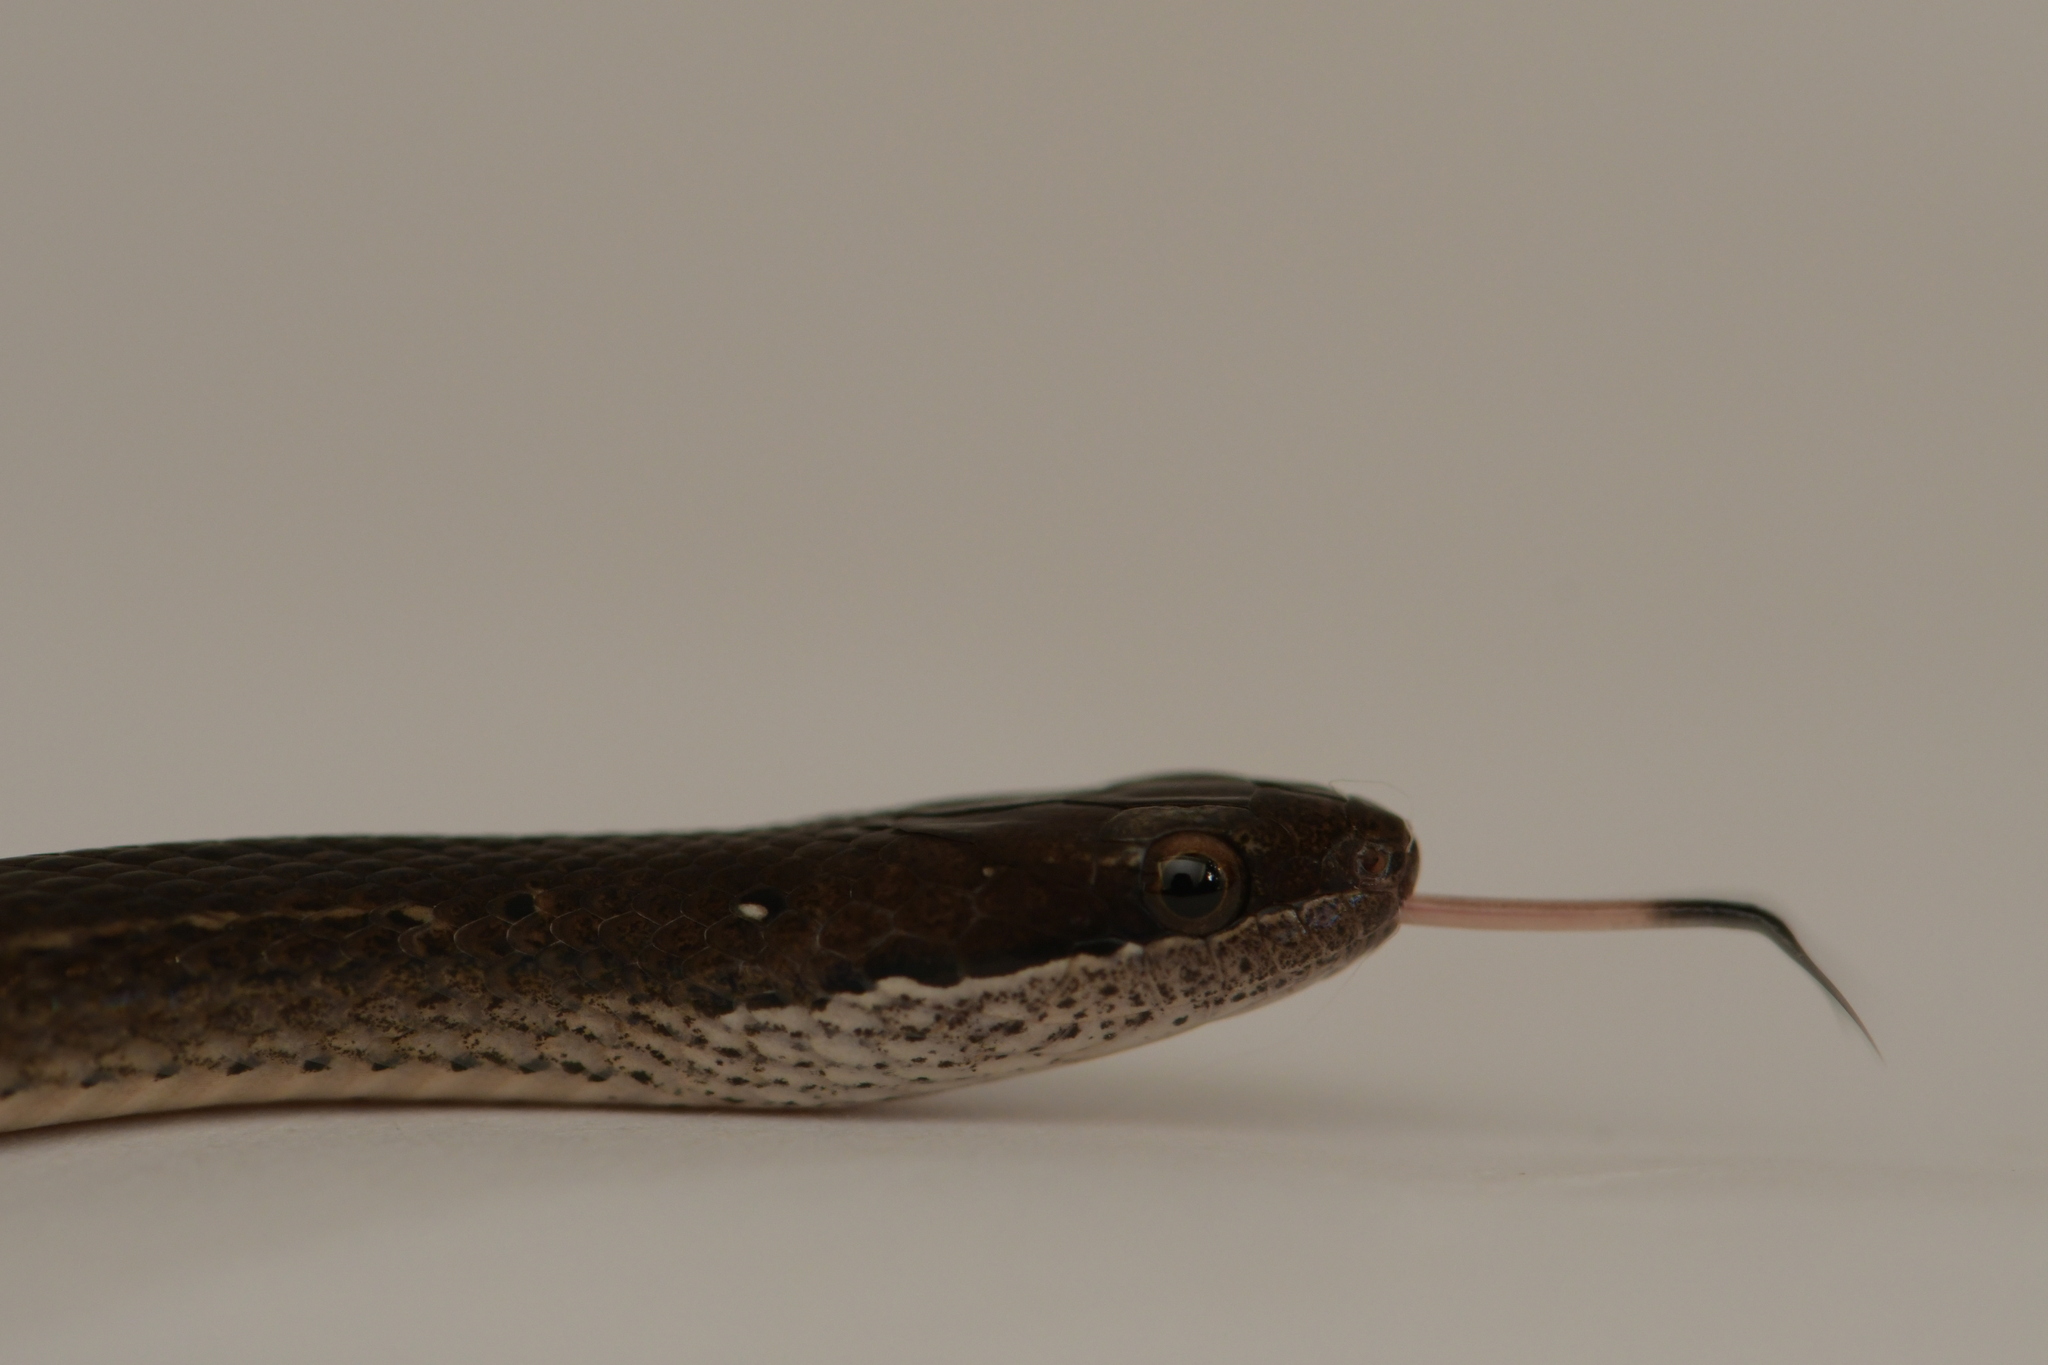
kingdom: Animalia
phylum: Chordata
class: Squamata
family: Colubridae
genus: Coniophanes
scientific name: Coniophanes fissidens
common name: Yellowbelly snake
